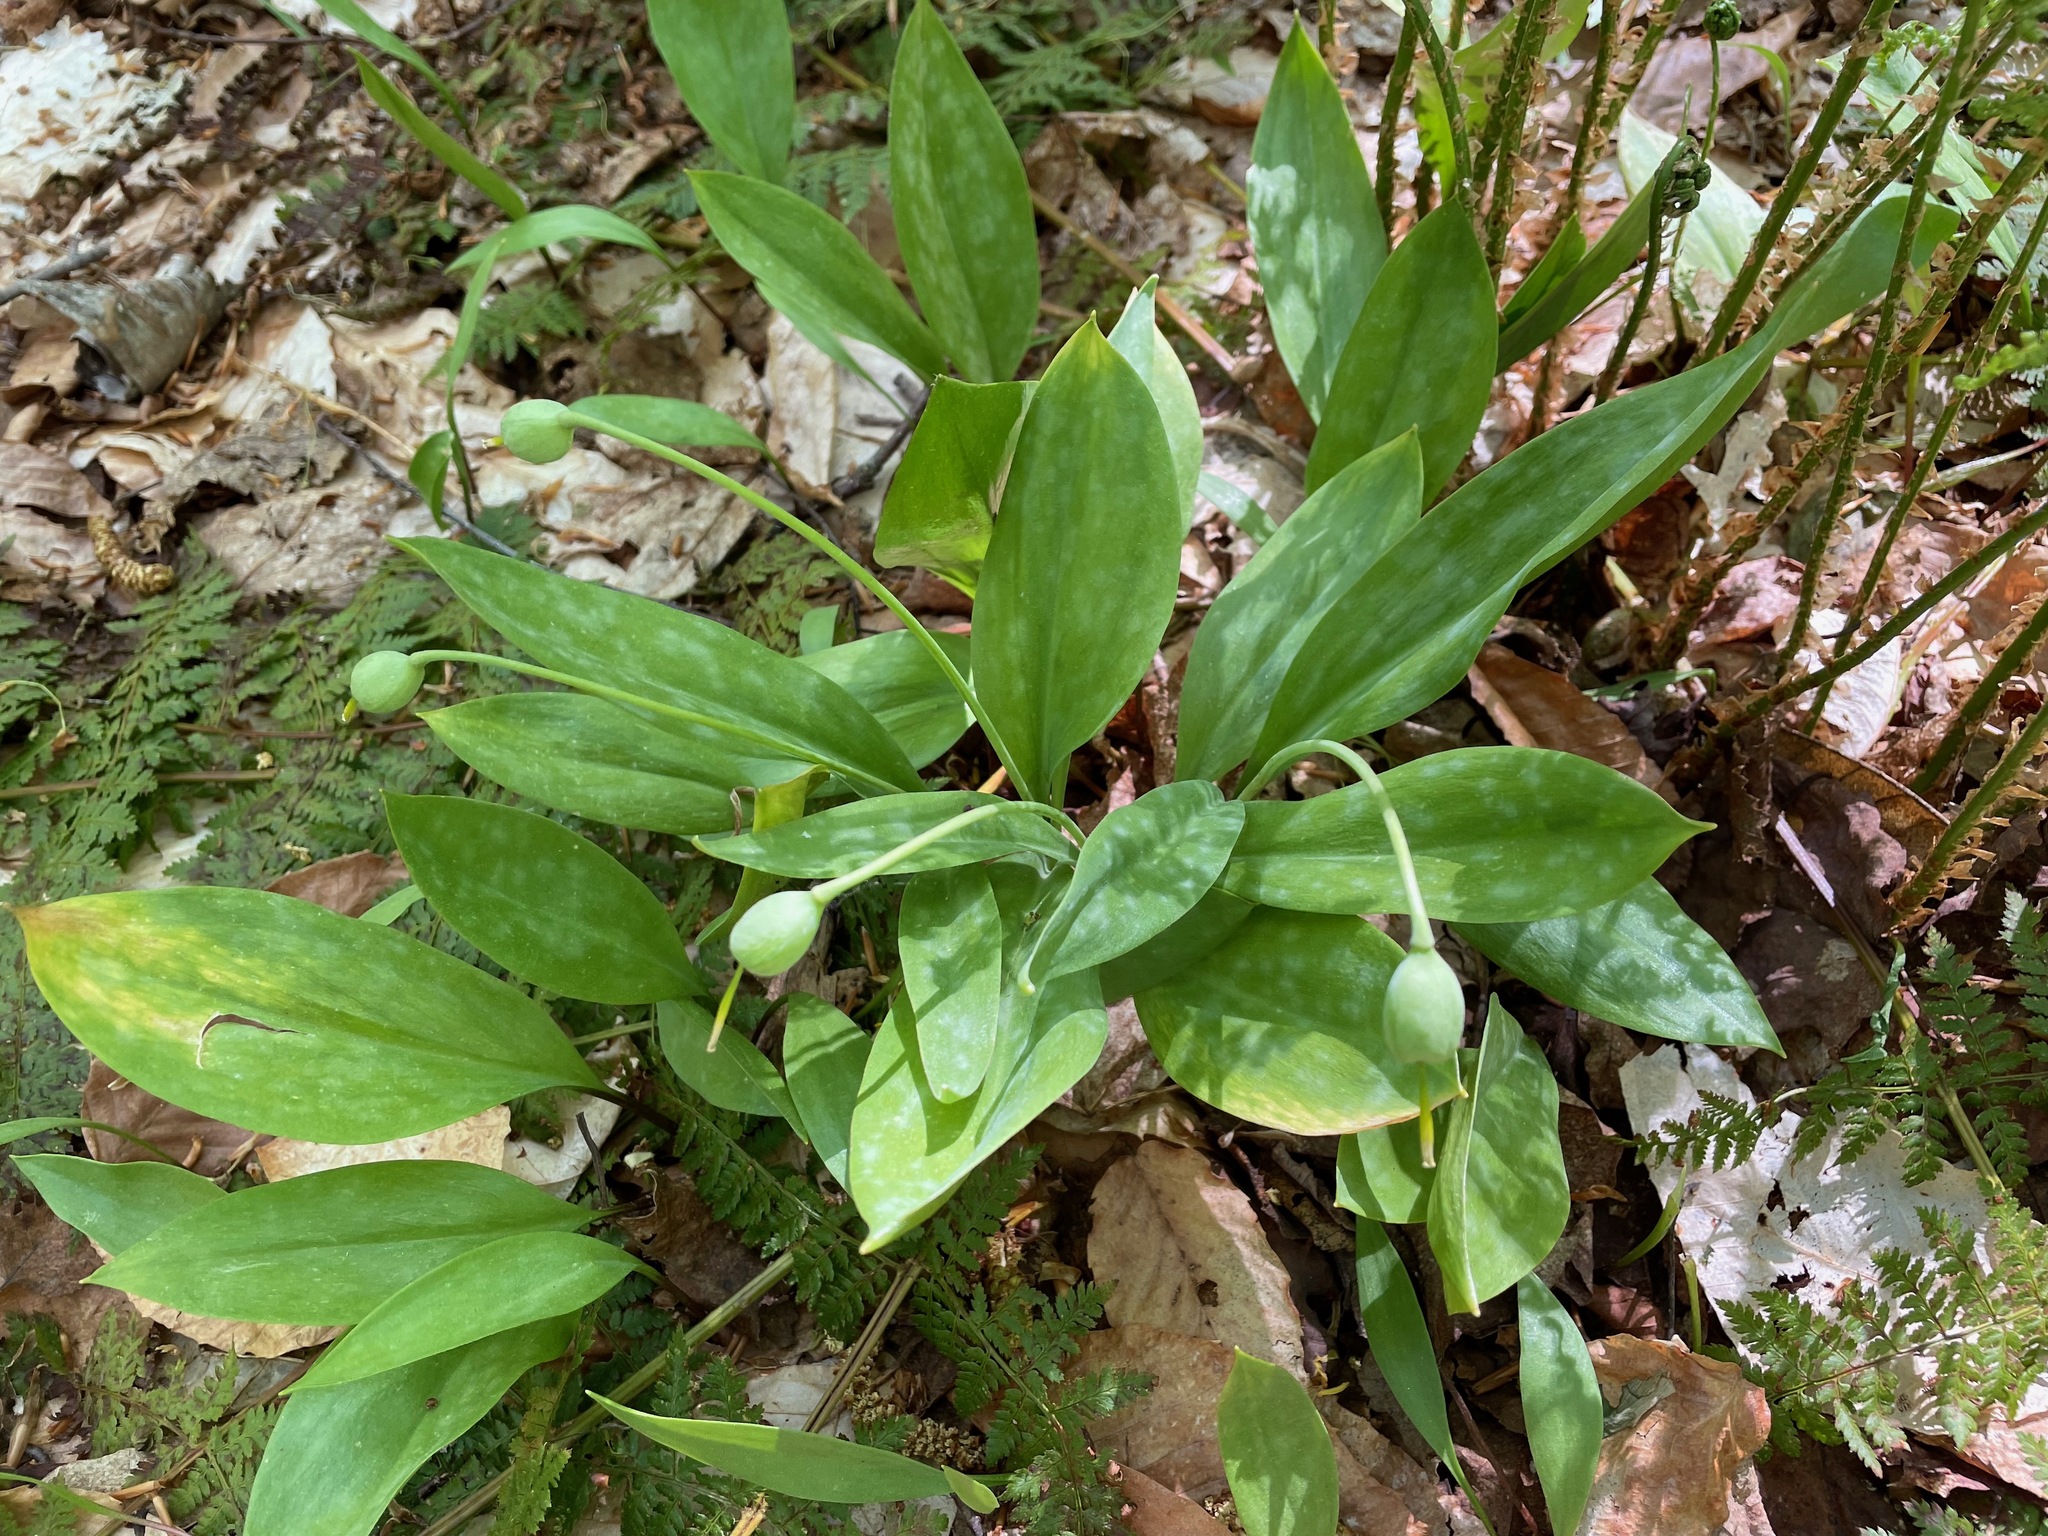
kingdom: Plantae
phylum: Tracheophyta
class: Liliopsida
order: Liliales
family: Liliaceae
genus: Erythronium
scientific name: Erythronium americanum
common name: Yellow adder's-tongue
